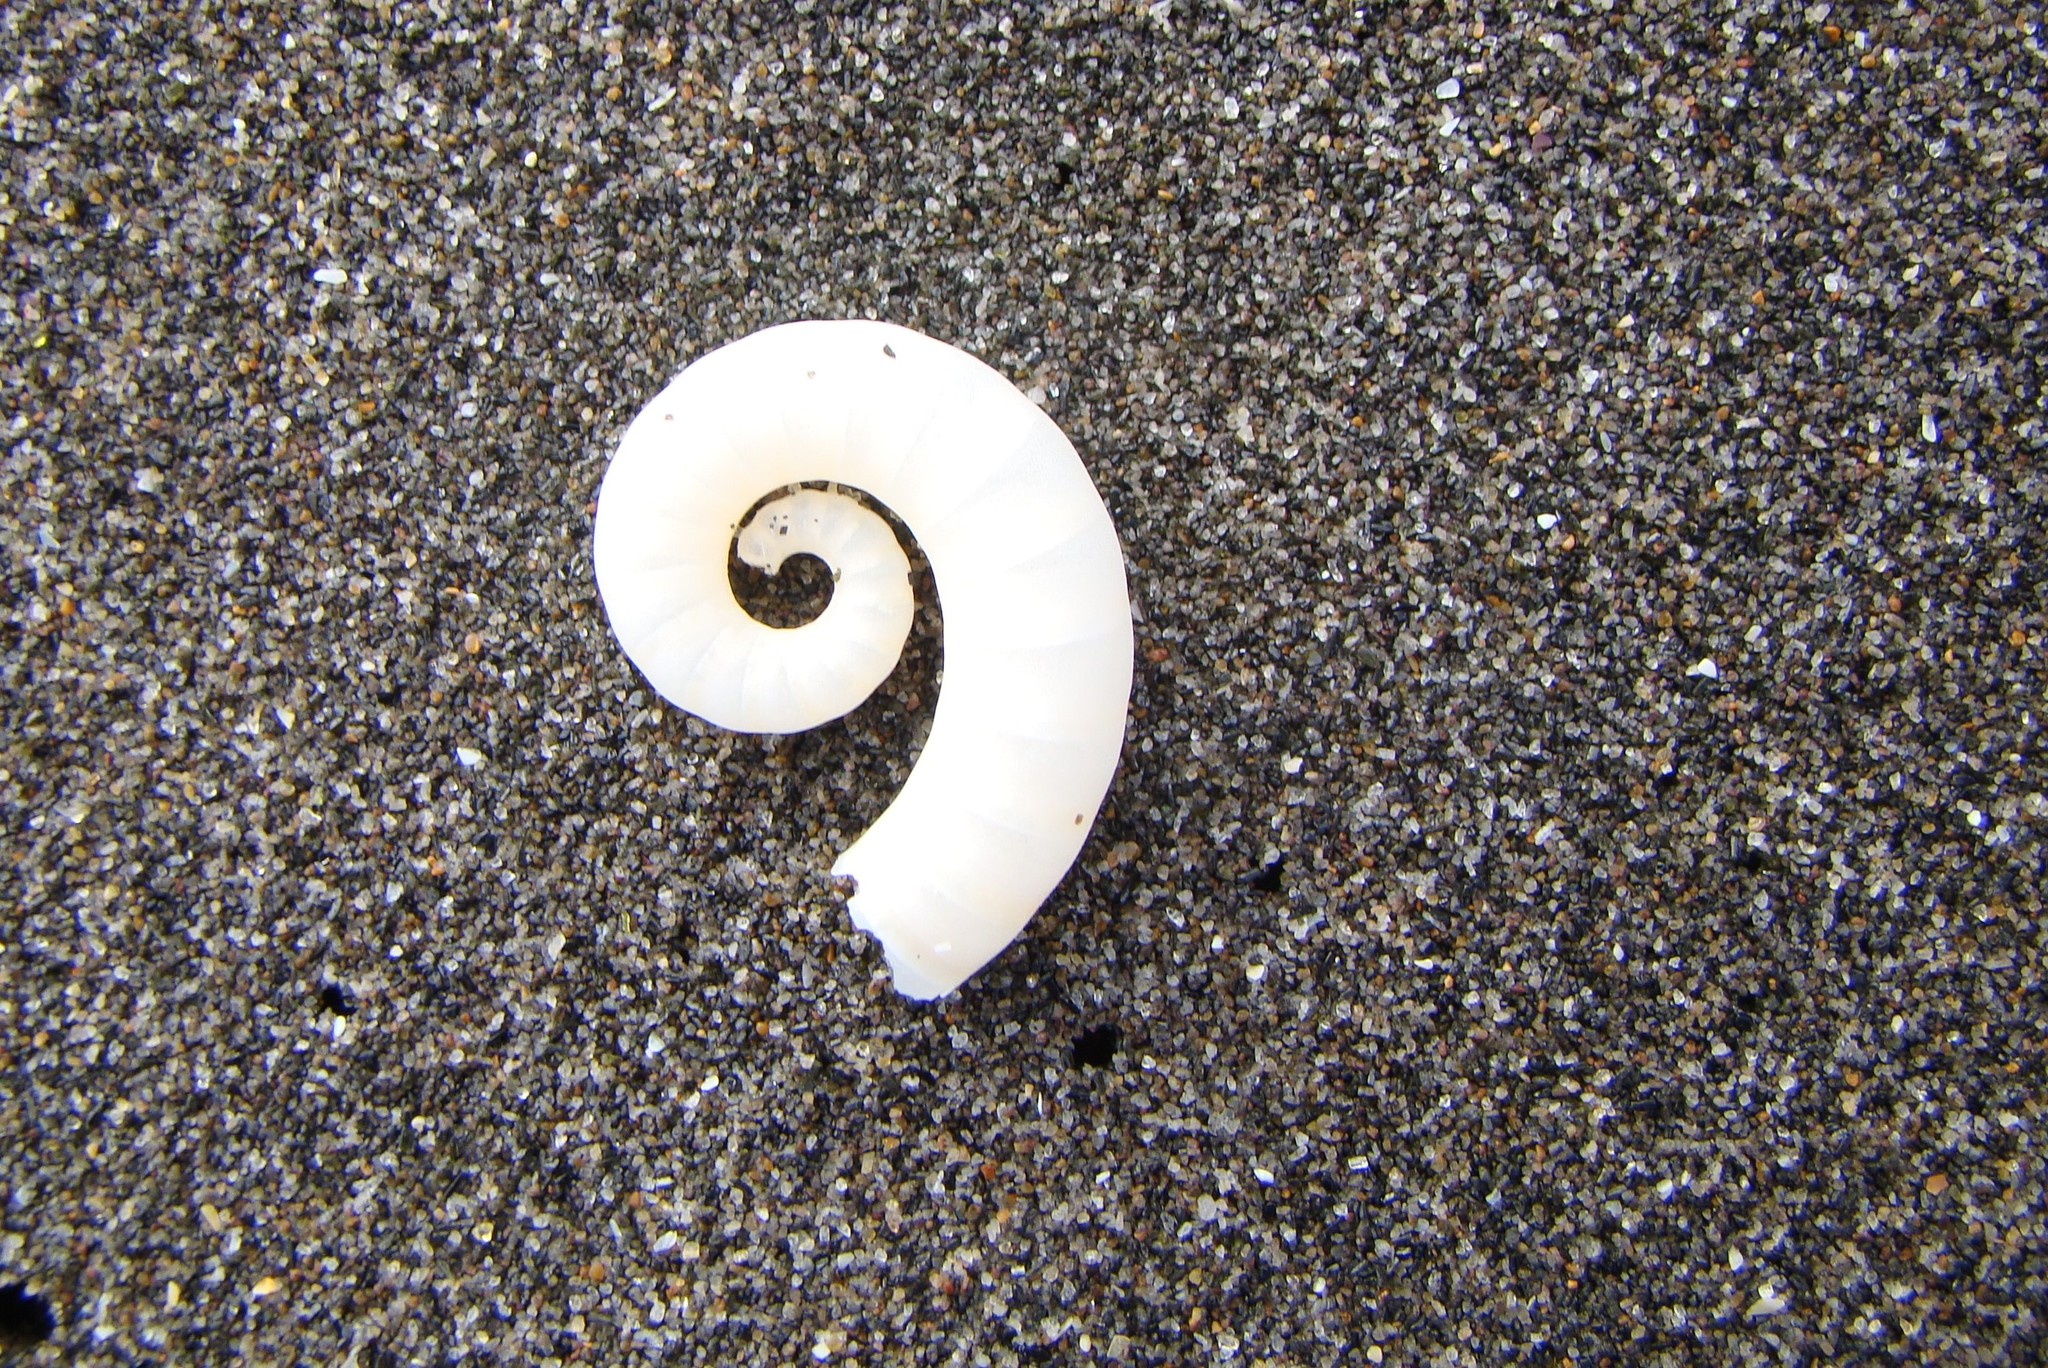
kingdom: Animalia
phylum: Mollusca
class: Cephalopoda
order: Spirulida
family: Spirulidae
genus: Spirula
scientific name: Spirula spirula
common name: Ram's horn squid
